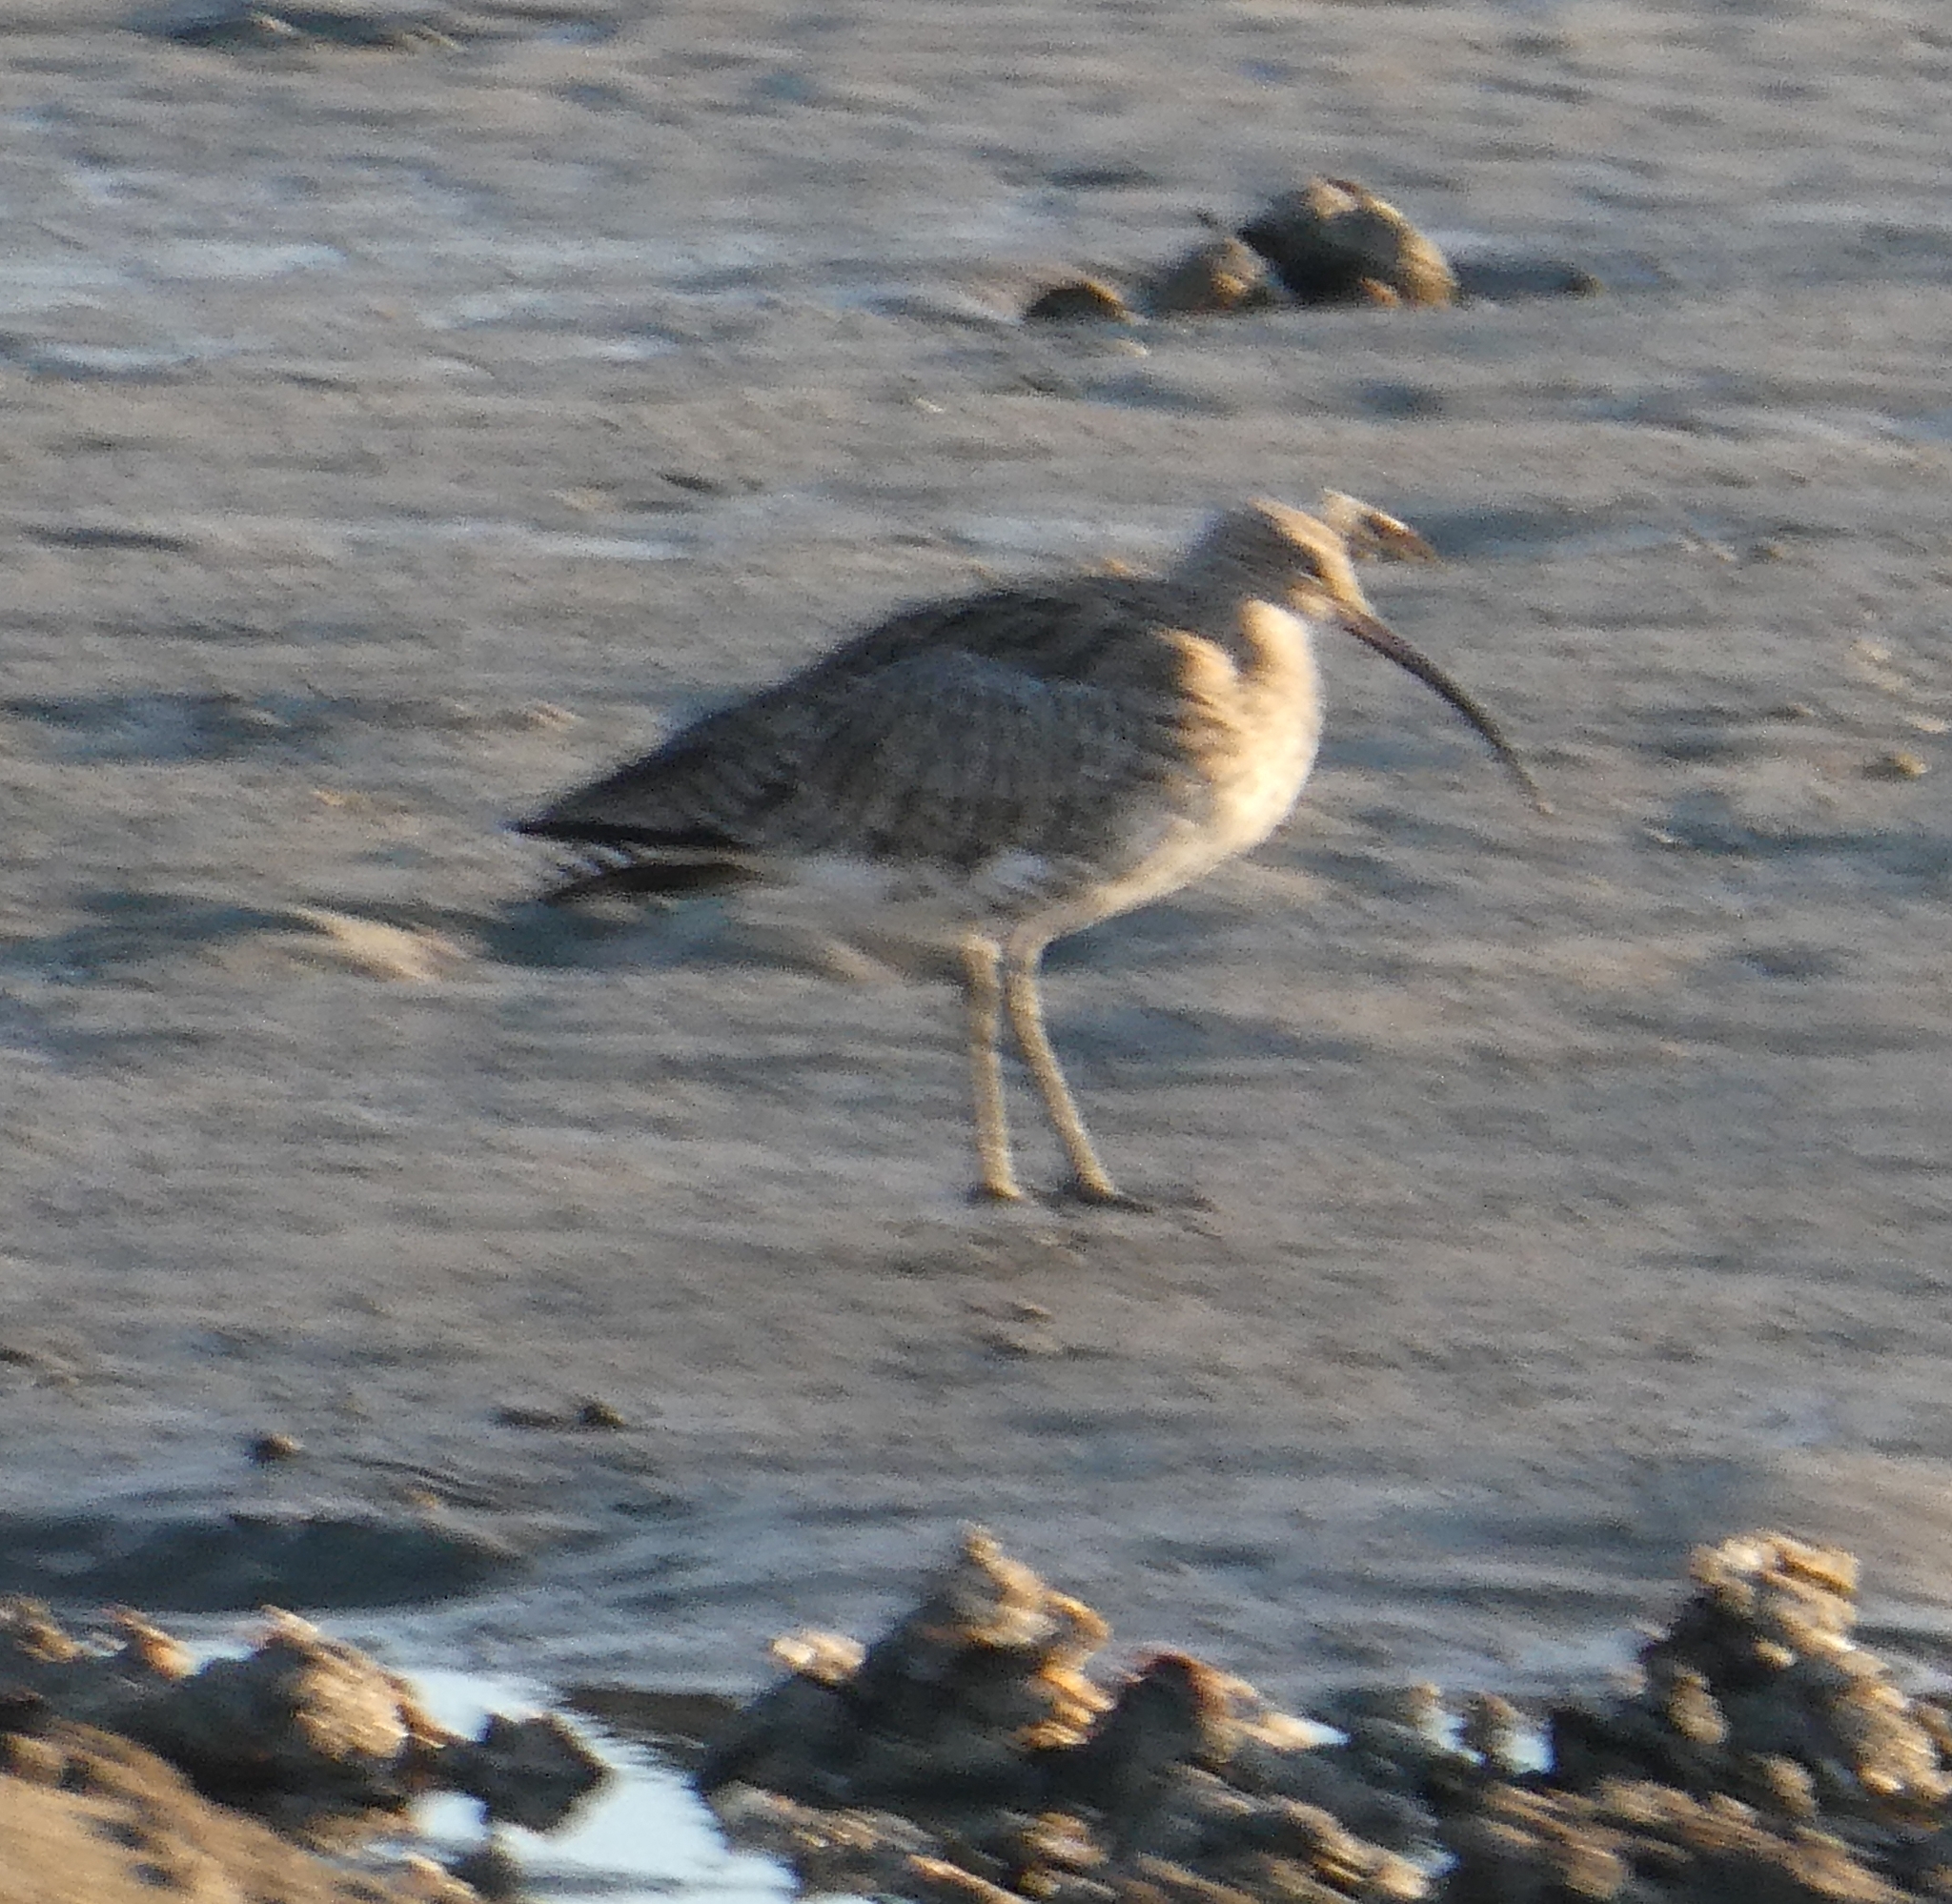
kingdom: Animalia
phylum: Chordata
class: Aves
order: Charadriiformes
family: Scolopacidae
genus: Numenius
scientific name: Numenius arquata
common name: Eurasian curlew
